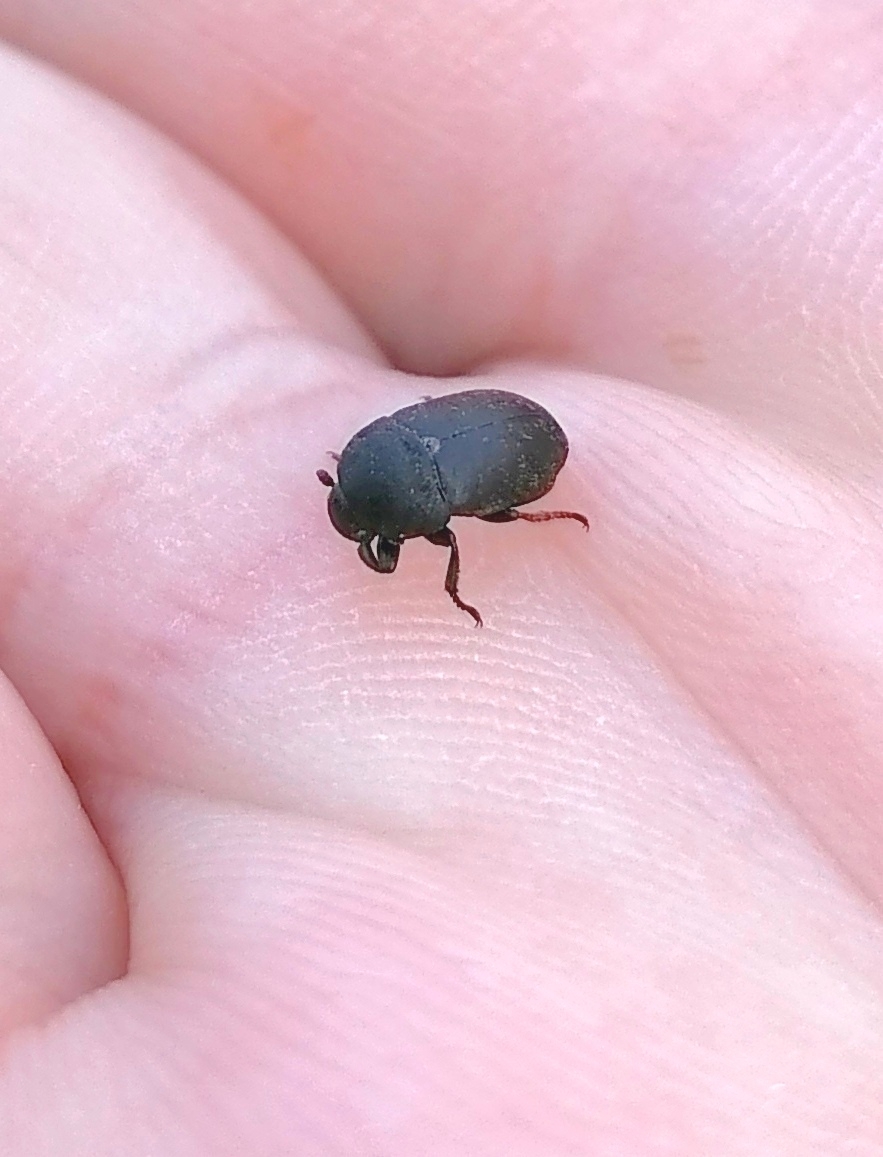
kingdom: Animalia
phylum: Arthropoda
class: Insecta
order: Coleoptera
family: Dermestidae
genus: Dermestes
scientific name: Dermestes laniarius
